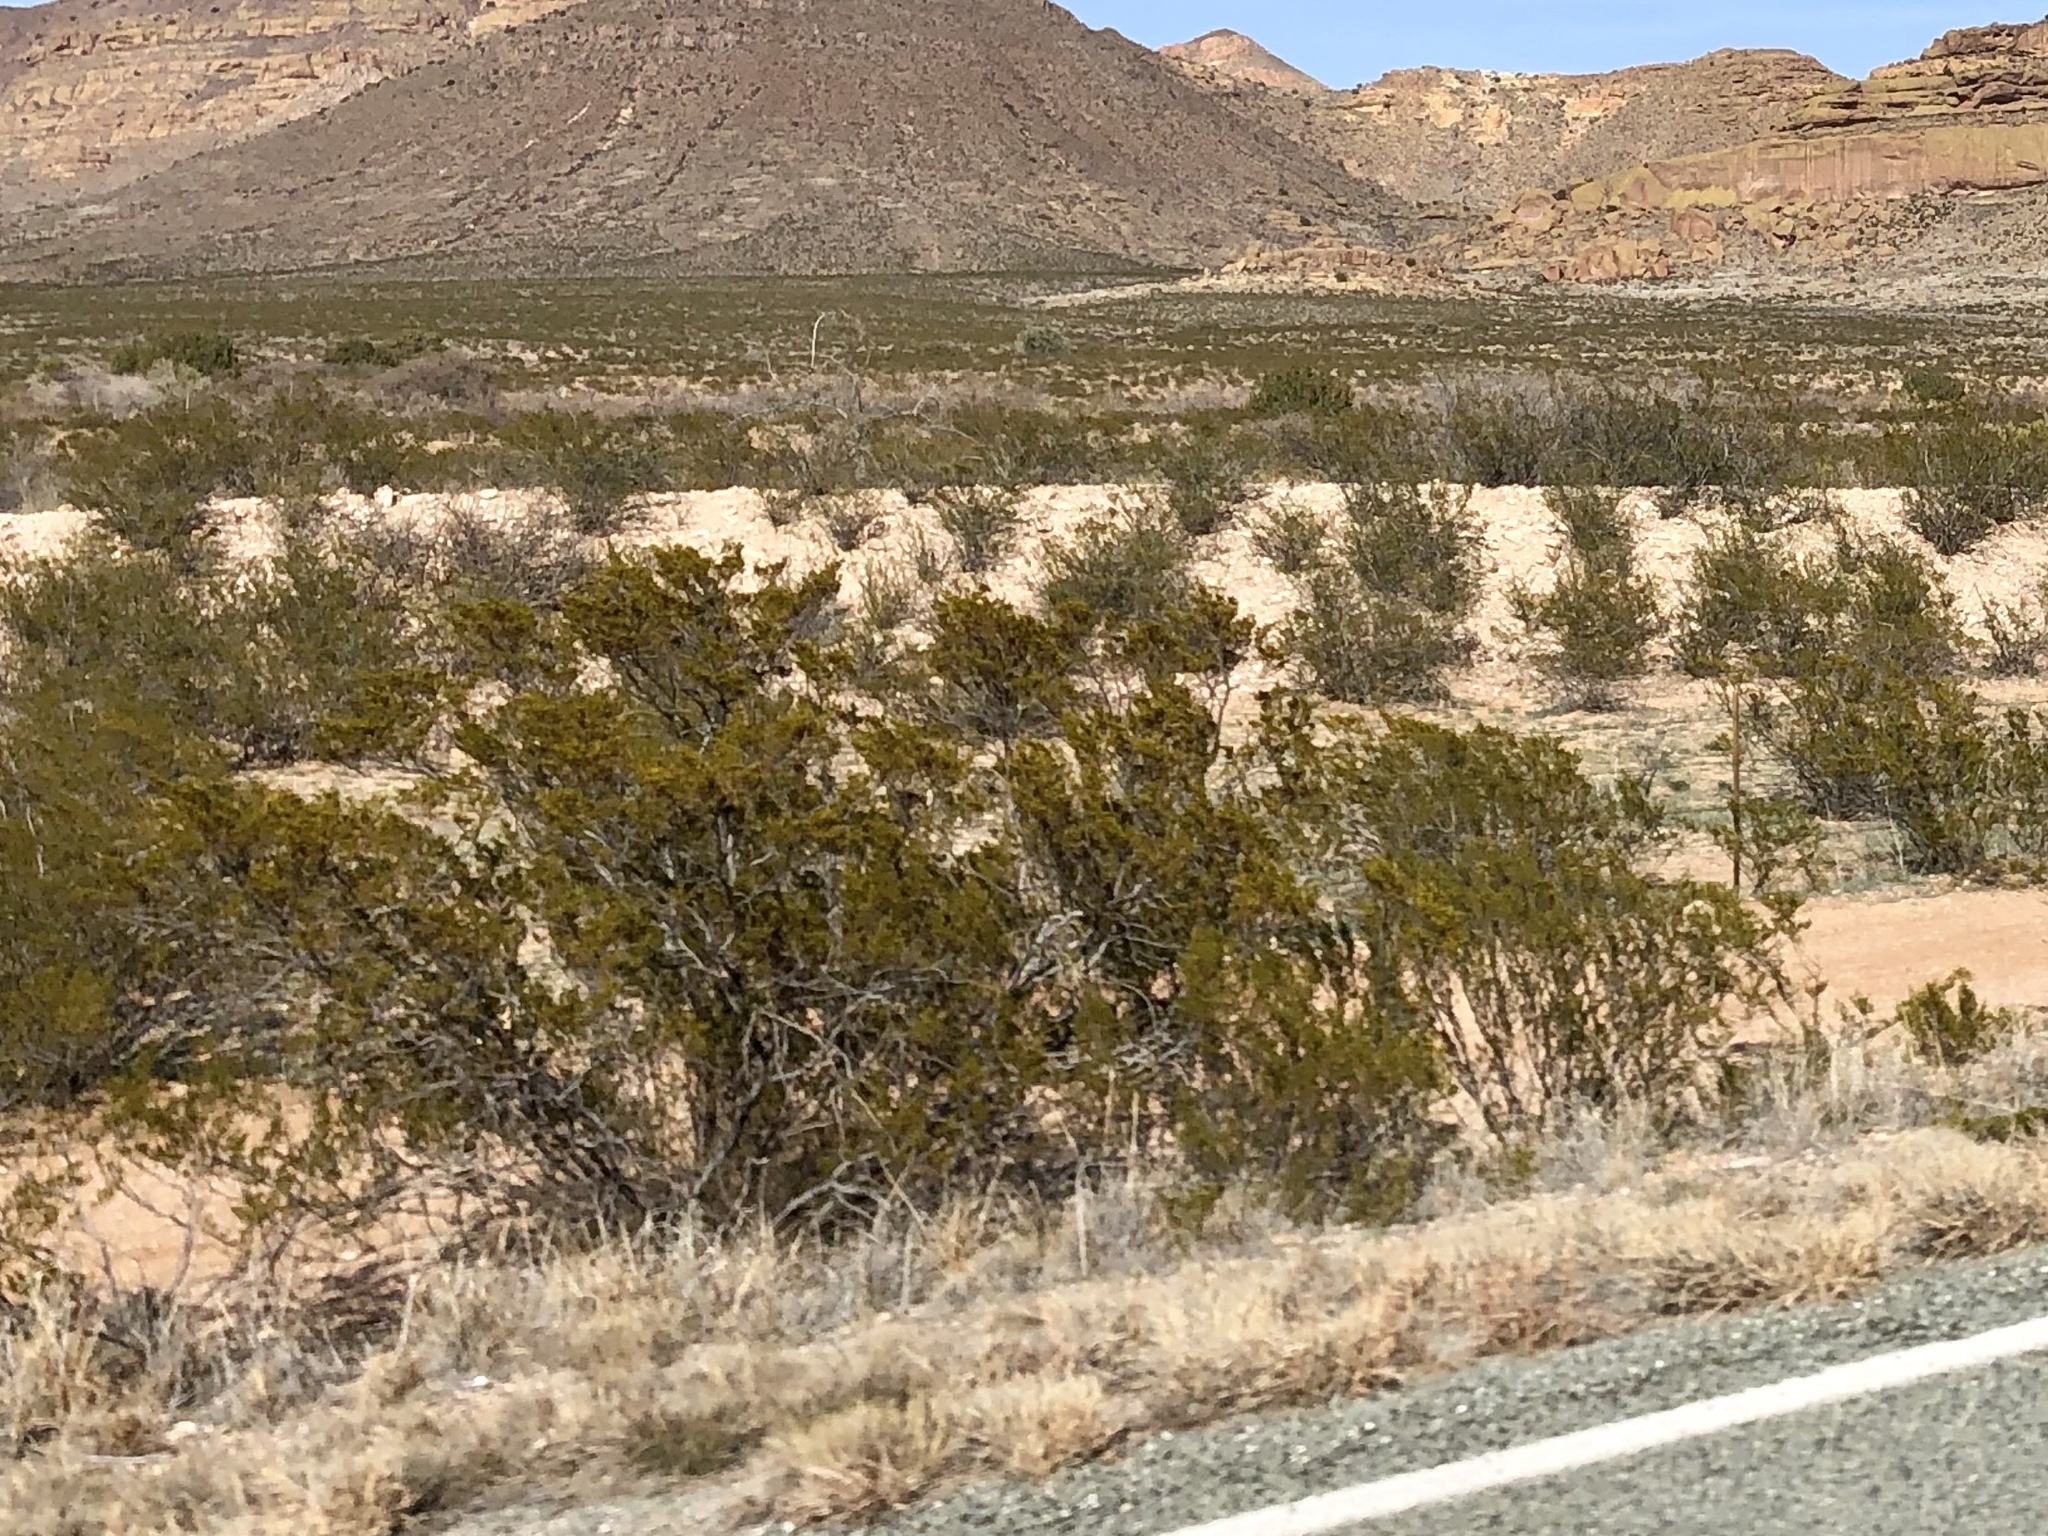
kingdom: Plantae
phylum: Tracheophyta
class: Magnoliopsida
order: Zygophyllales
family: Zygophyllaceae
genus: Larrea
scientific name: Larrea tridentata
